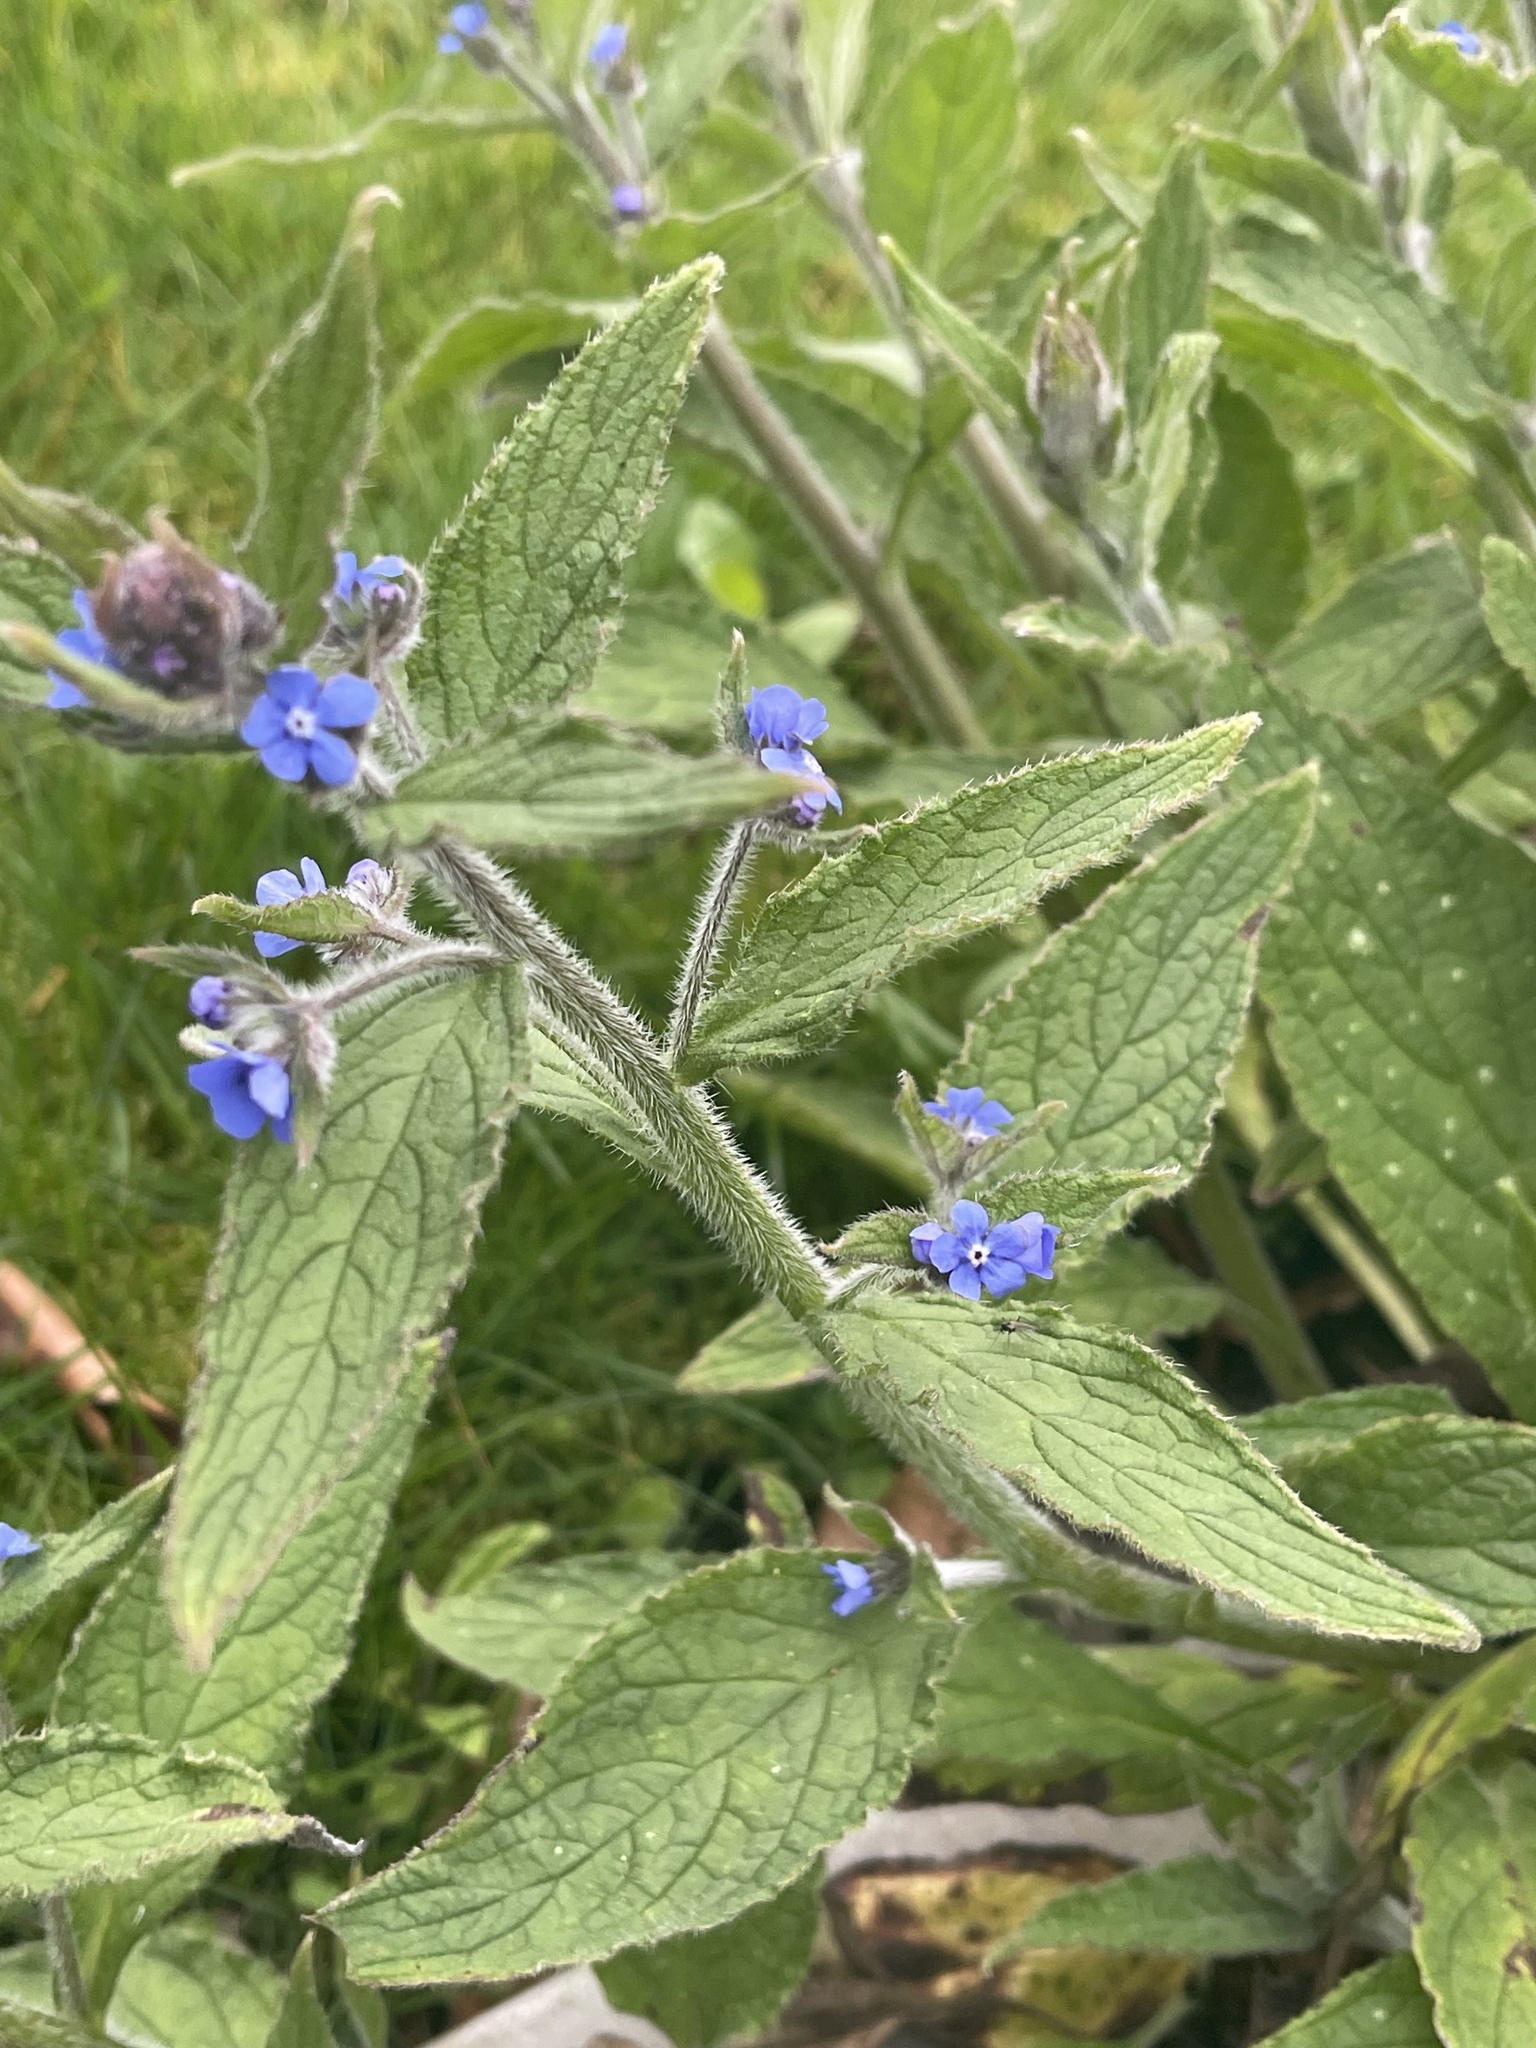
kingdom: Plantae
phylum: Tracheophyta
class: Magnoliopsida
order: Boraginales
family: Boraginaceae
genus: Pentaglottis
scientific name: Pentaglottis sempervirens
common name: Green alkanet
